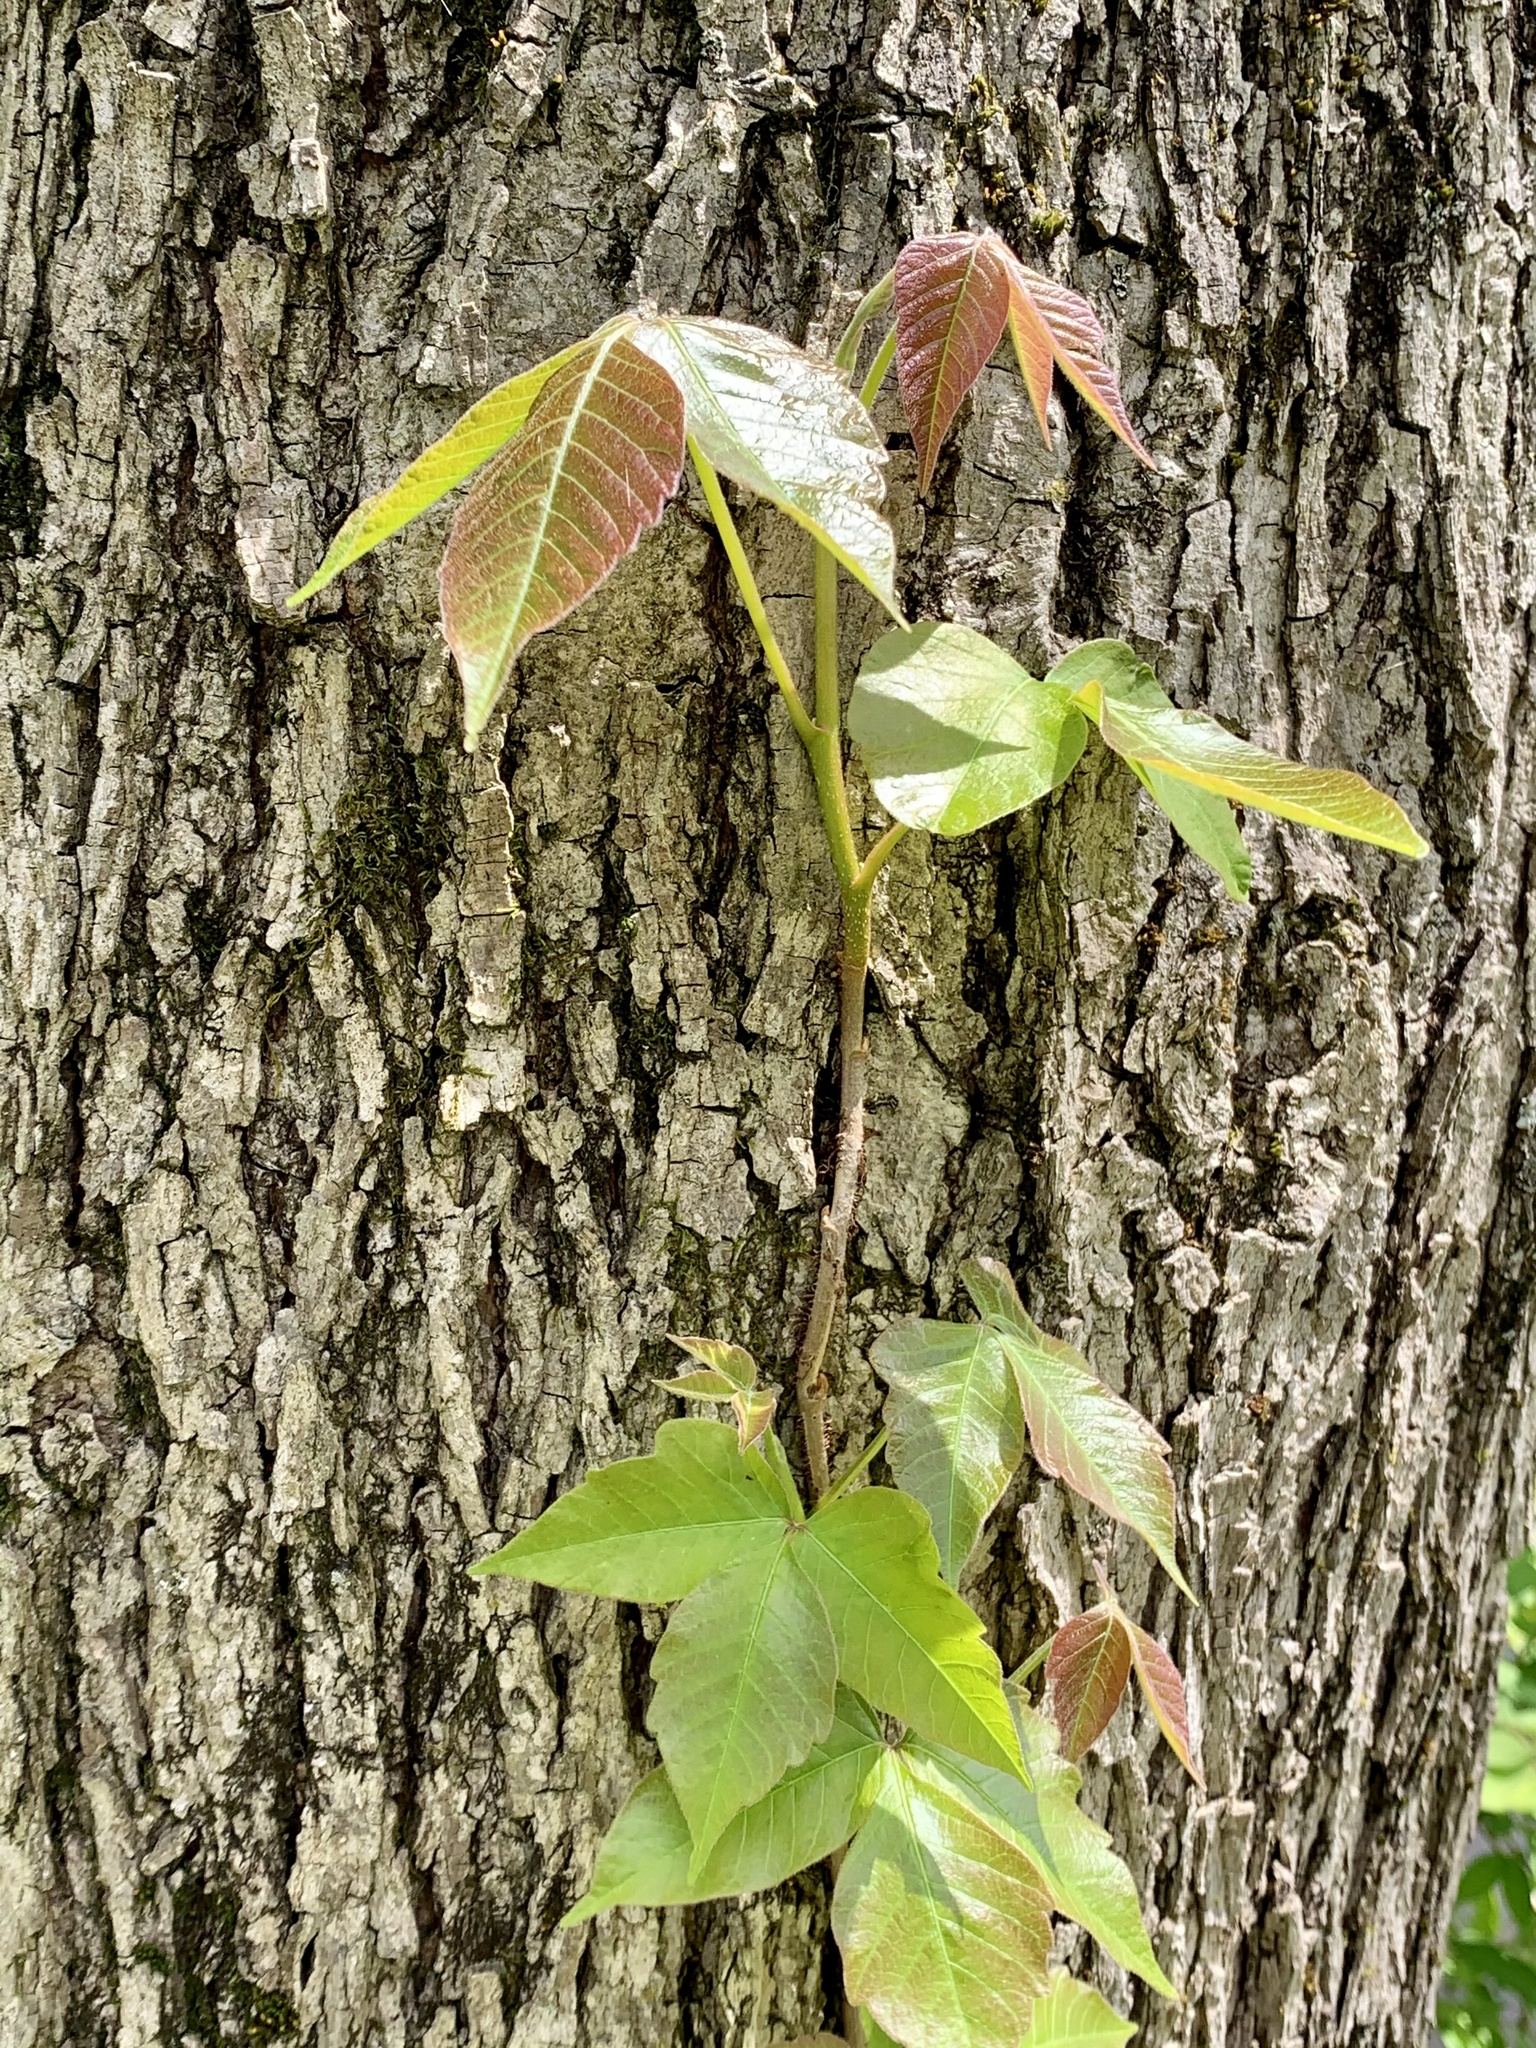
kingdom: Plantae
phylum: Tracheophyta
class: Magnoliopsida
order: Sapindales
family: Anacardiaceae
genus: Toxicodendron
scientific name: Toxicodendron radicans
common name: Poison ivy
